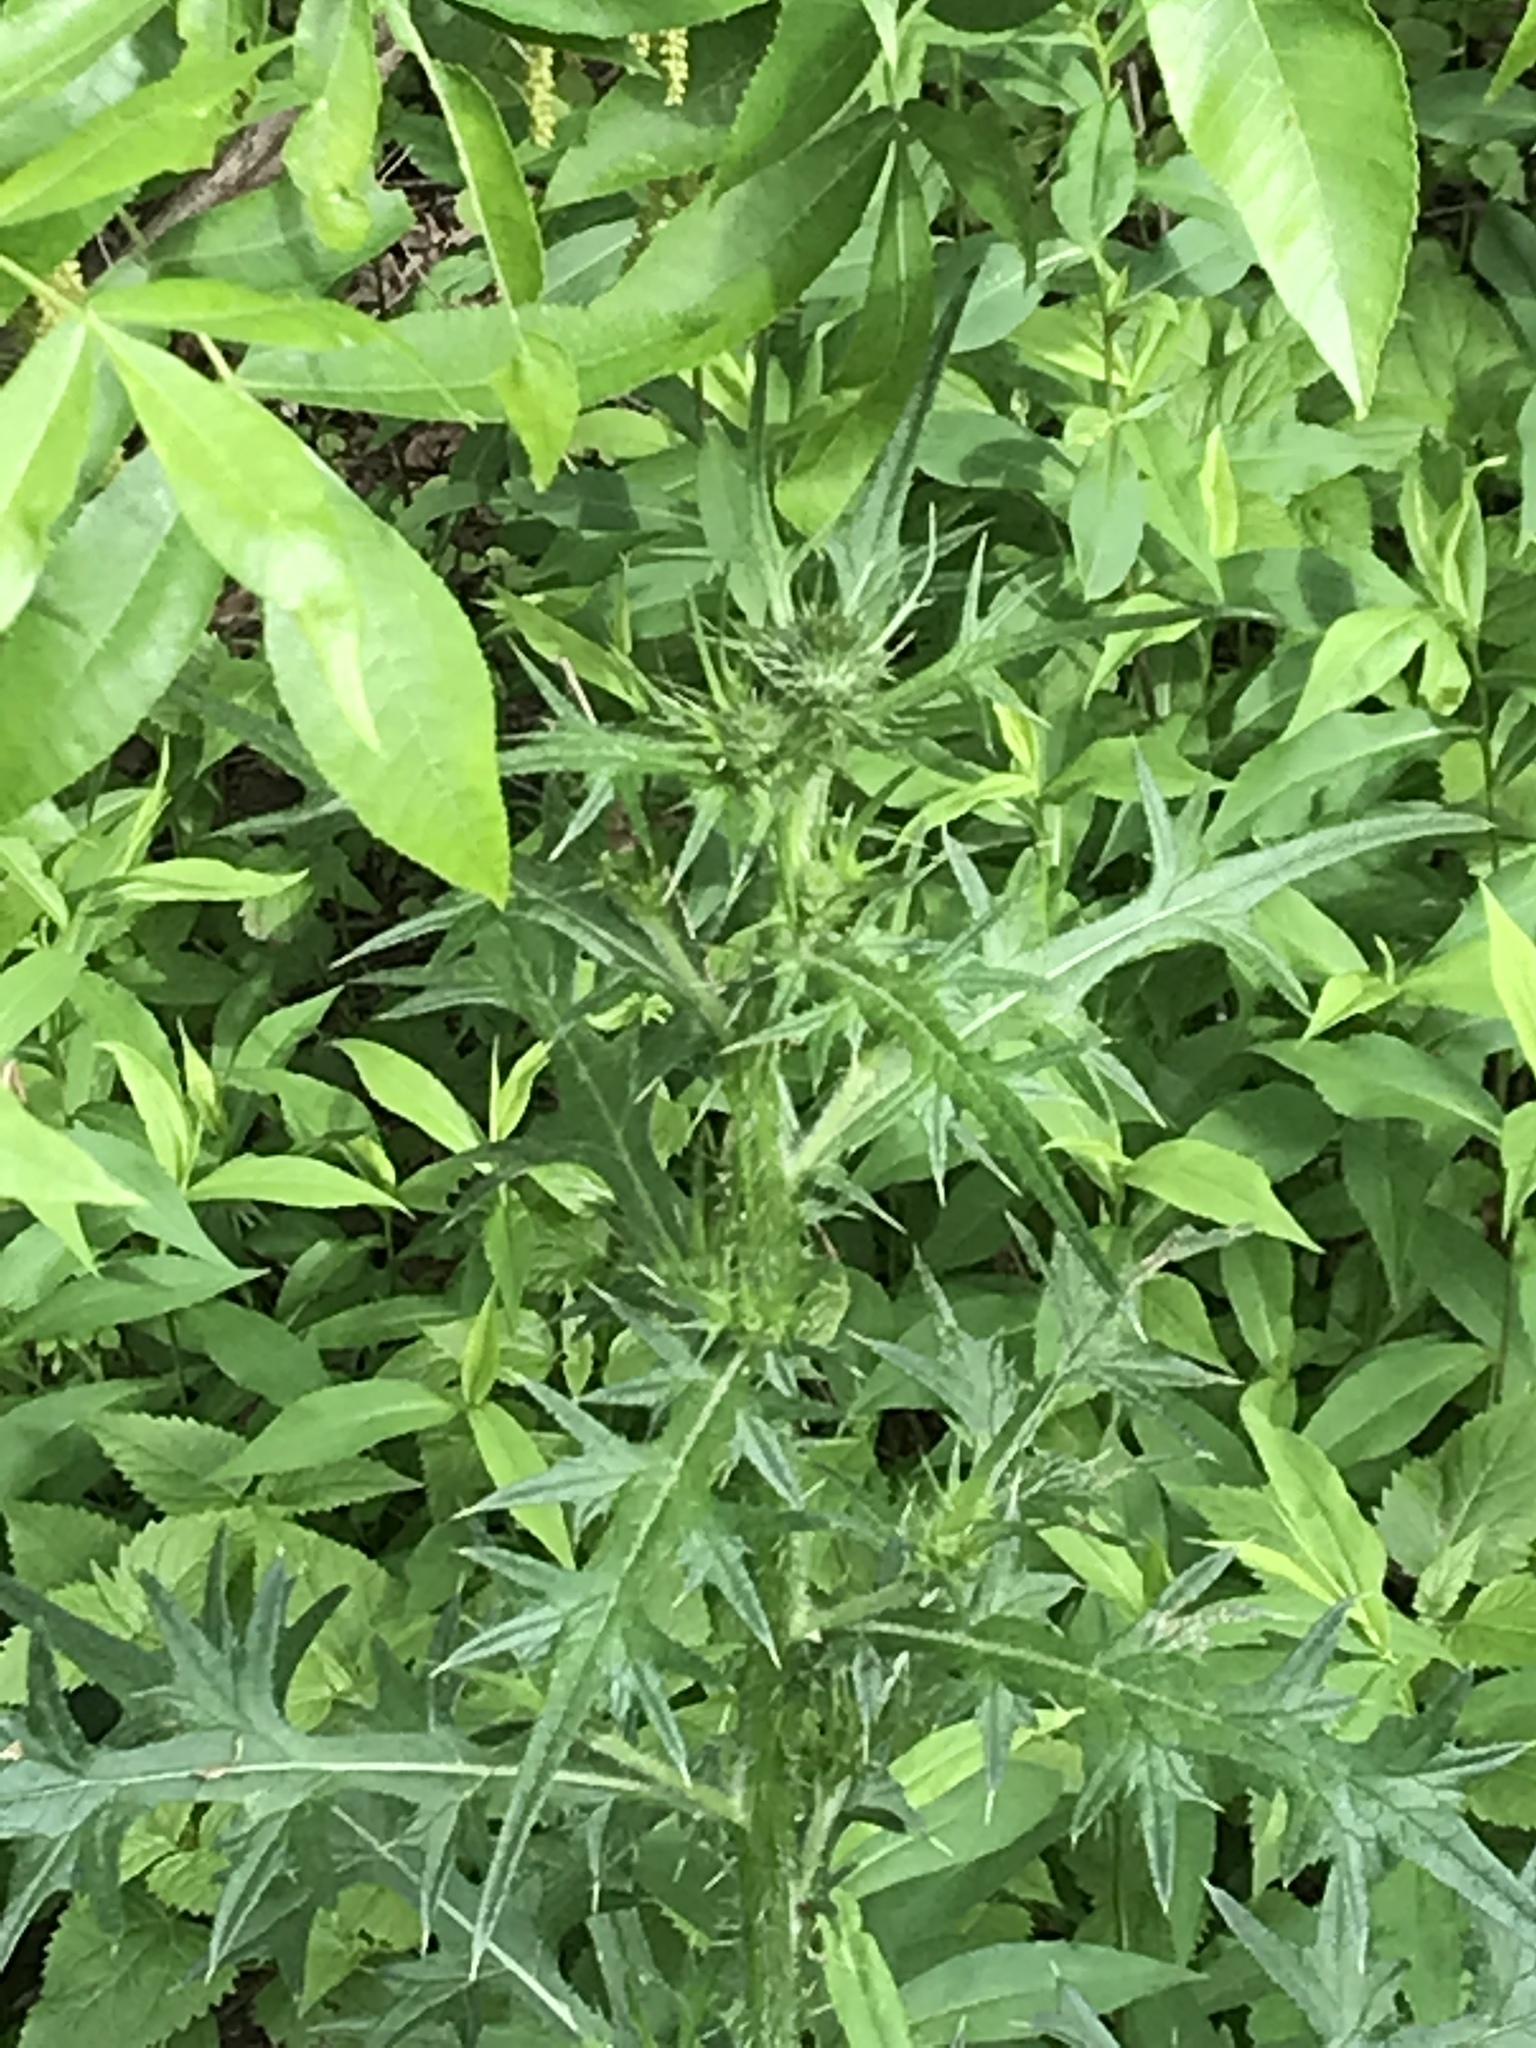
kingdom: Plantae
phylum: Tracheophyta
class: Magnoliopsida
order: Asterales
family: Asteraceae
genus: Cirsium
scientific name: Cirsium vulgare
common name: Bull thistle
